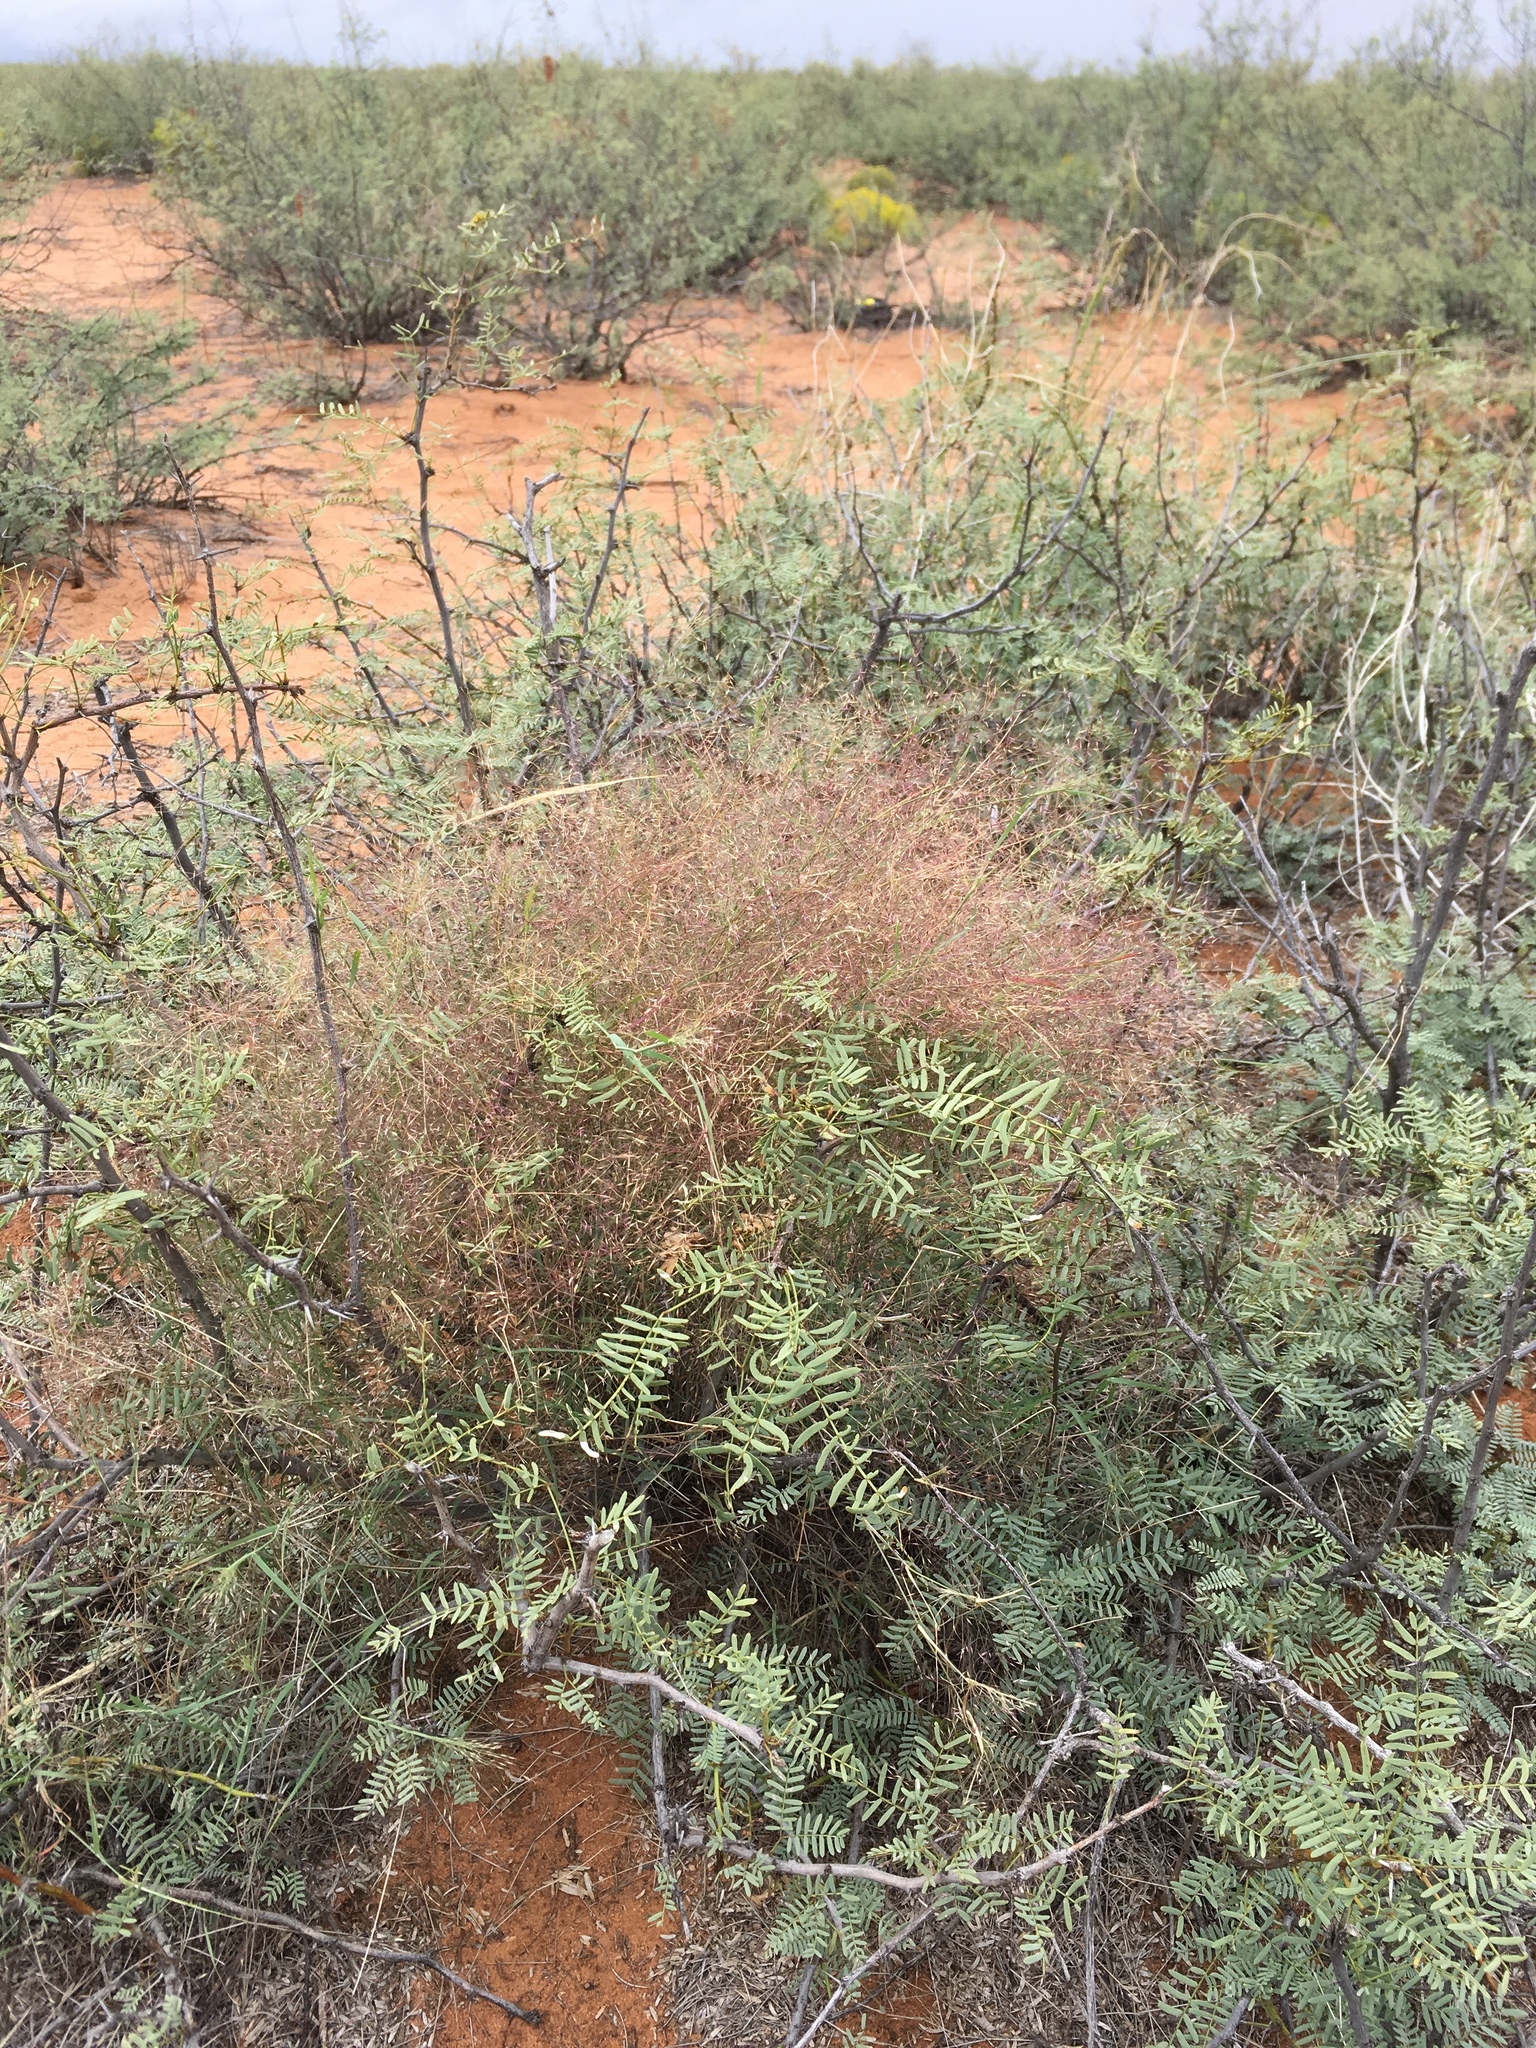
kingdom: Plantae
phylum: Tracheophyta
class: Liliopsida
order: Poales
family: Poaceae
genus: Muhlenbergia
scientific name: Muhlenbergia porteri
